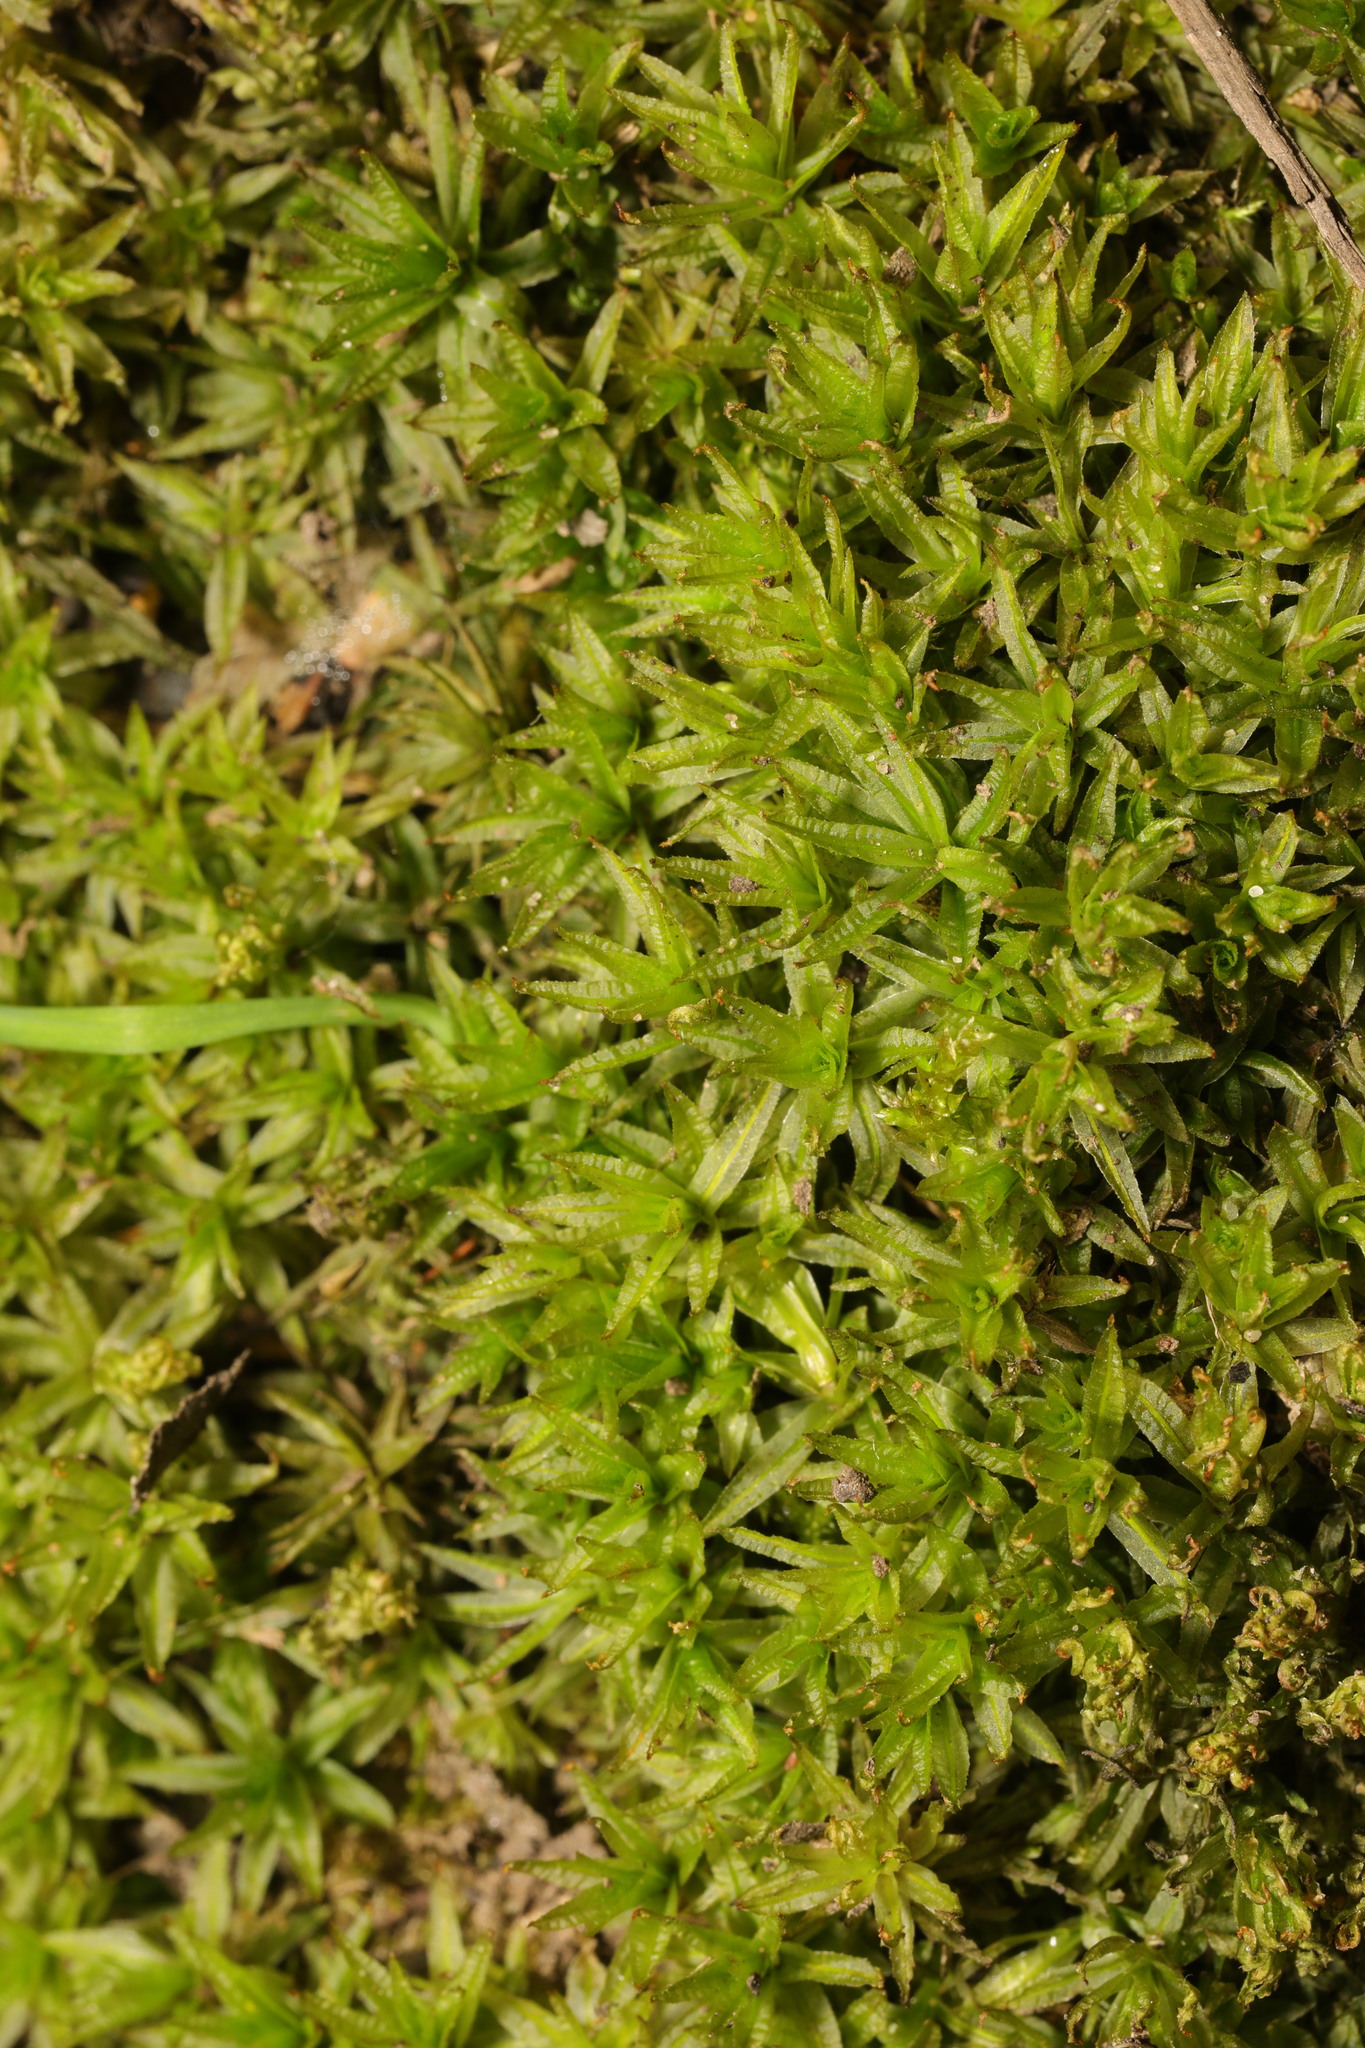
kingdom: Plantae
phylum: Bryophyta
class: Polytrichopsida
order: Polytrichales
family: Polytrichaceae
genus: Atrichum
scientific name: Atrichum undulatum
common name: Common smoothcap
